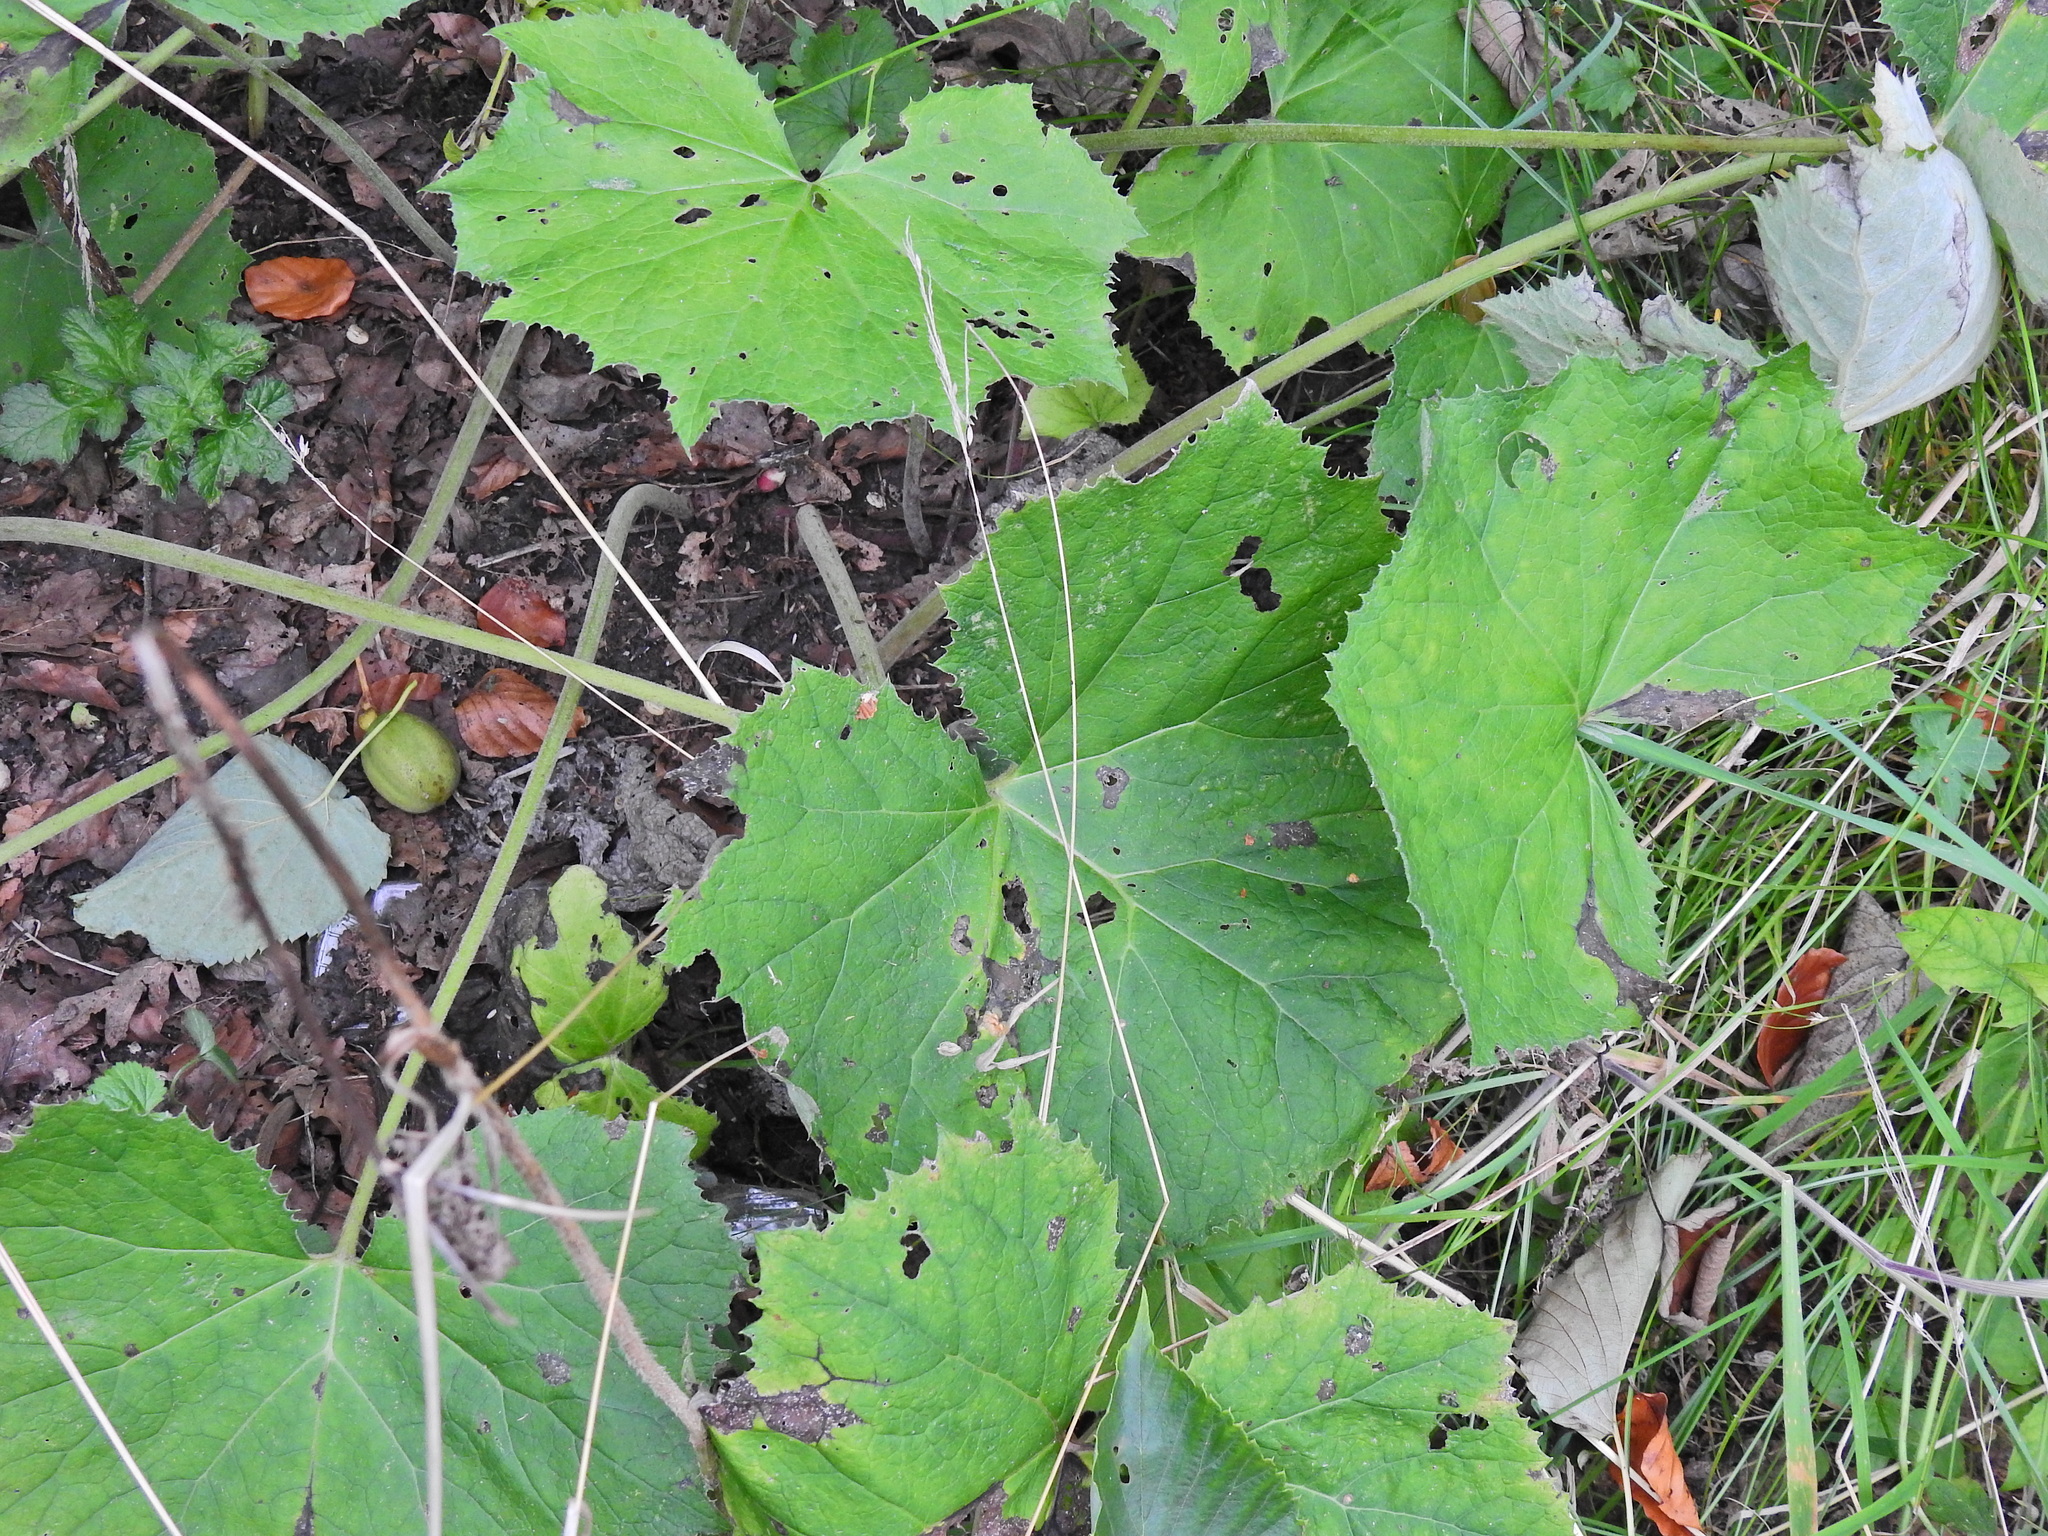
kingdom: Plantae
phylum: Tracheophyta
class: Magnoliopsida
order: Asterales
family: Asteraceae
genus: Tussilago
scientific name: Tussilago farfara
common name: Coltsfoot
